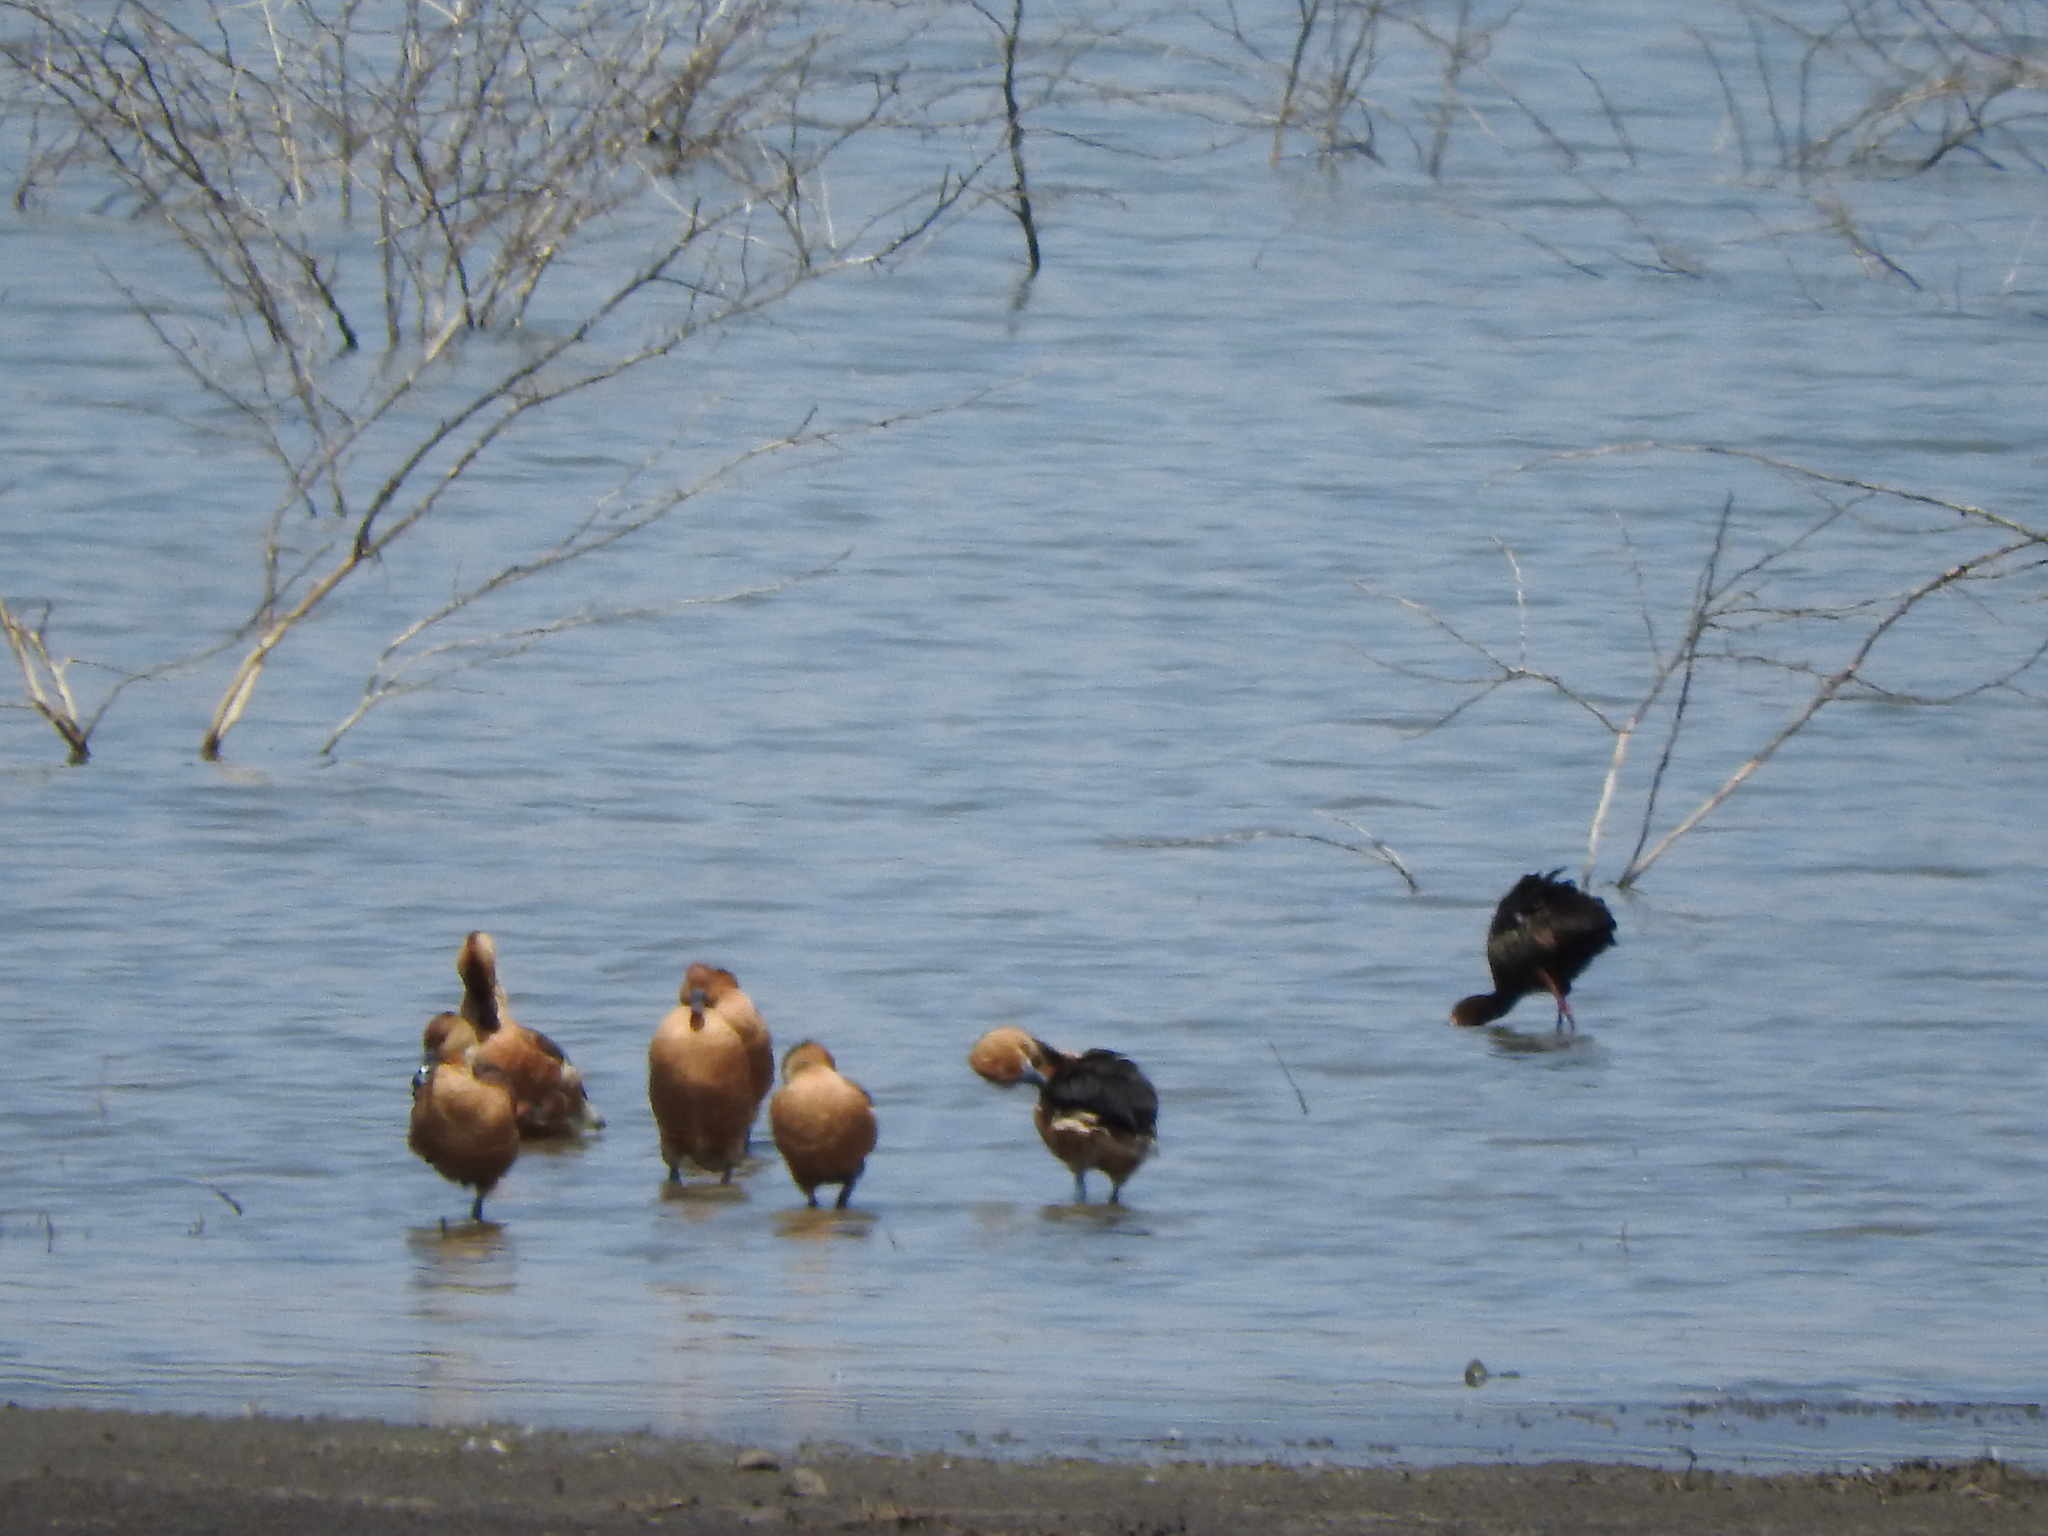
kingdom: Animalia
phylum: Chordata
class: Aves
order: Anseriformes
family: Anatidae
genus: Dendrocygna
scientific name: Dendrocygna bicolor
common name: Fulvous whistling duck
